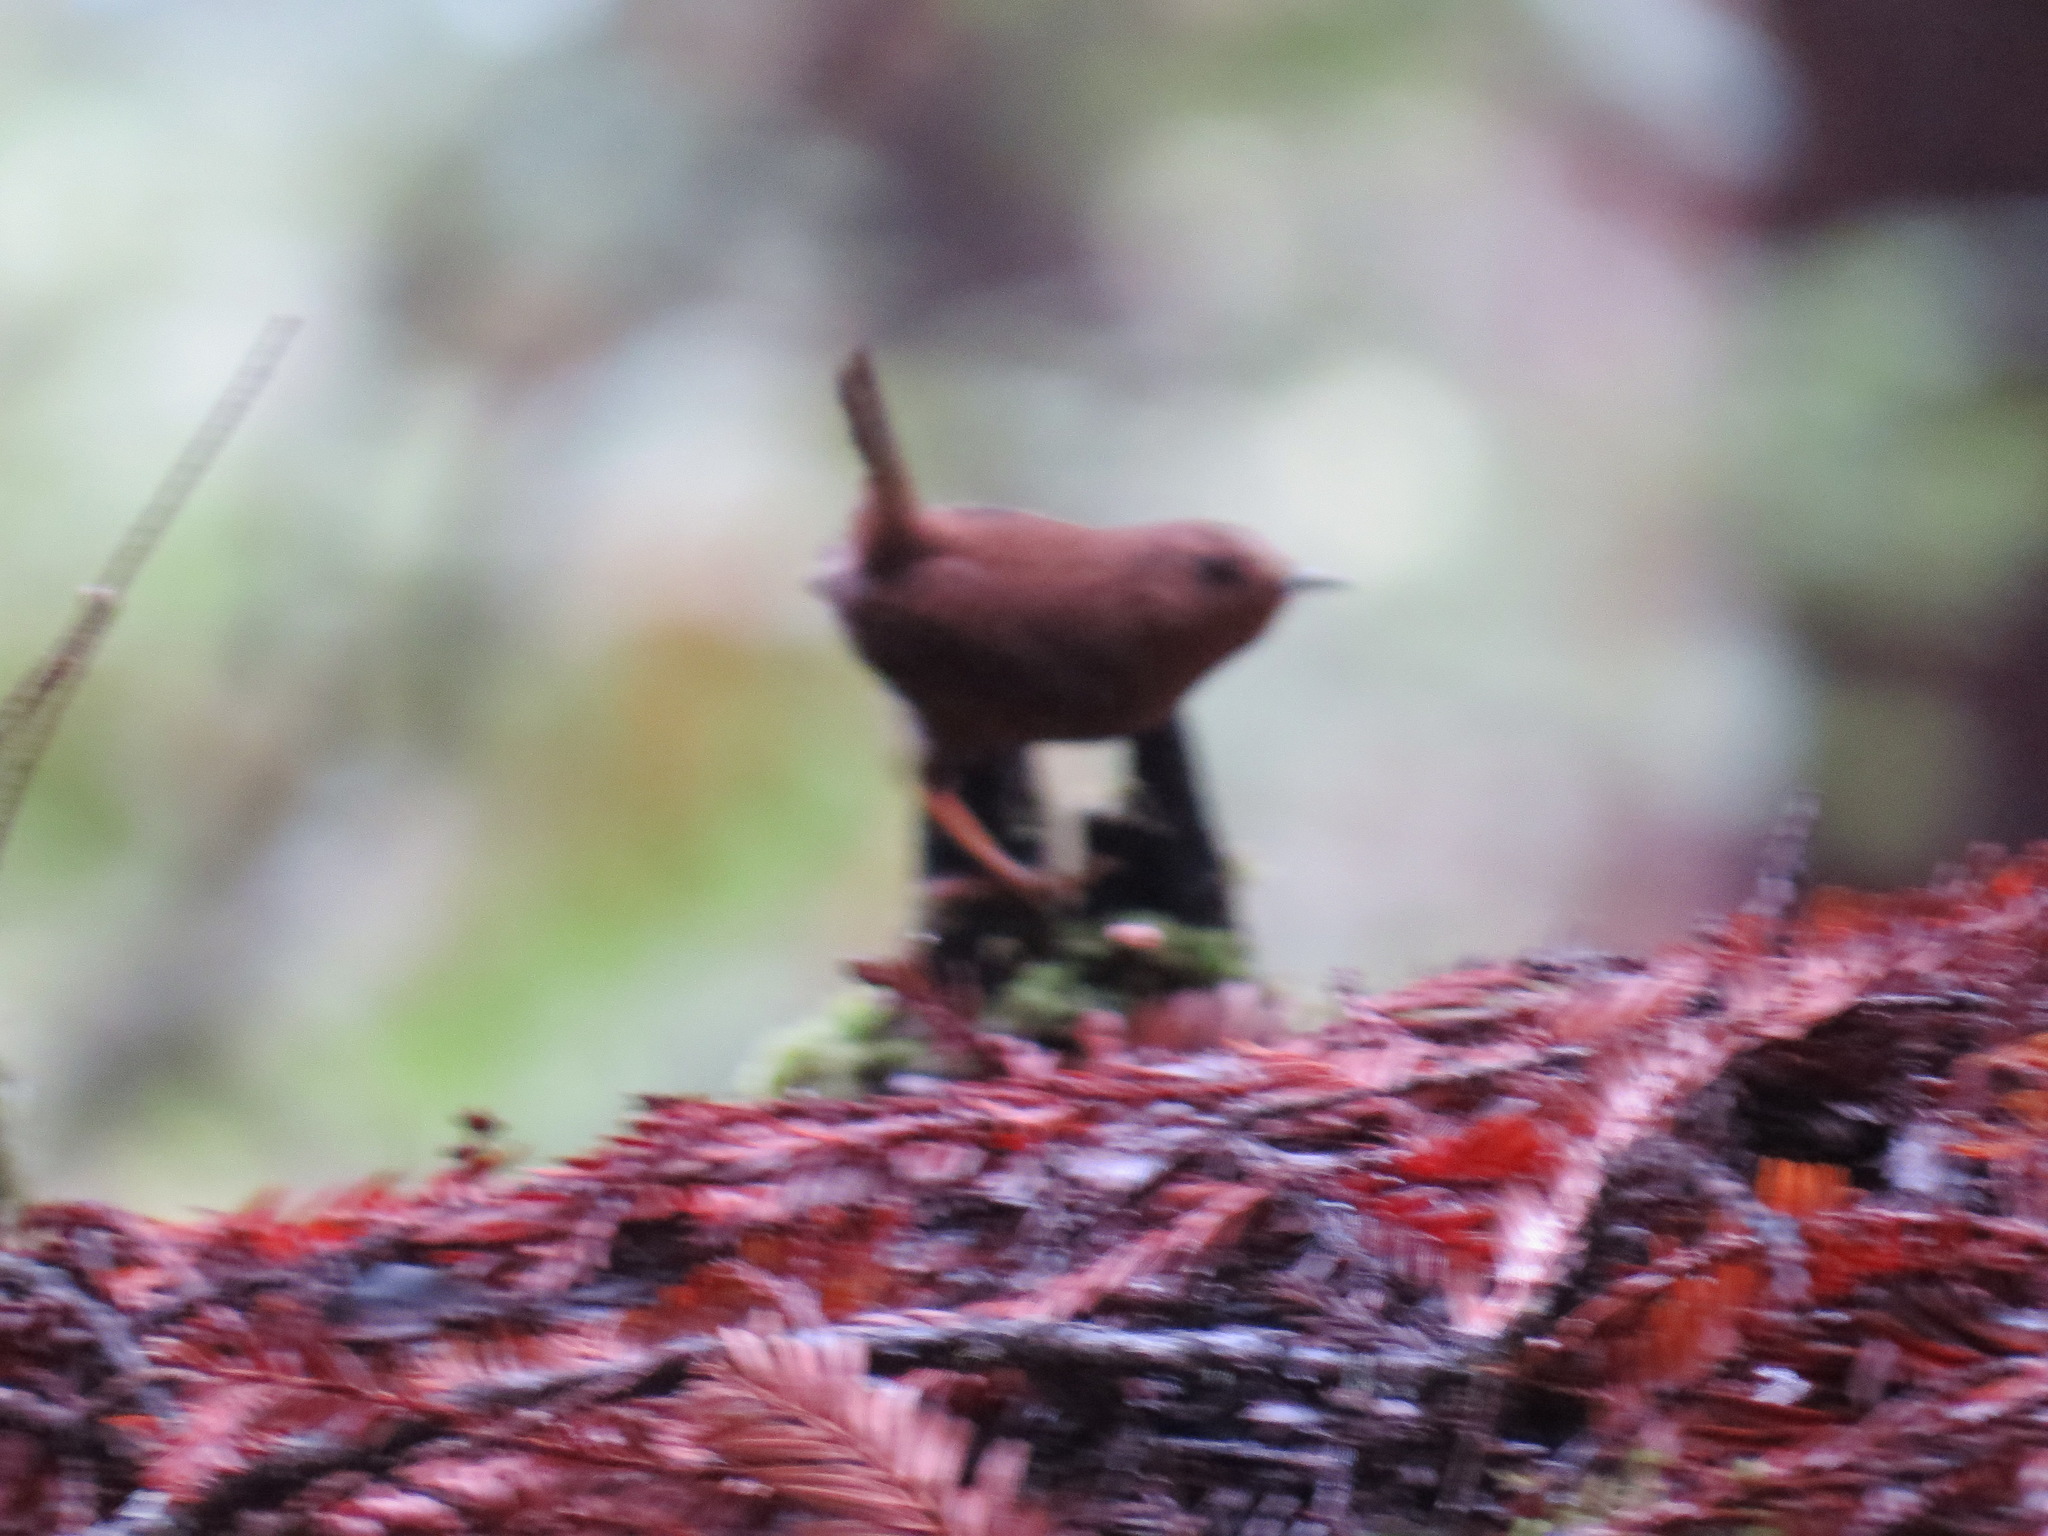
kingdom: Animalia
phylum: Chordata
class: Aves
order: Passeriformes
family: Troglodytidae
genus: Troglodytes
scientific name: Troglodytes pacificus
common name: Pacific wren
